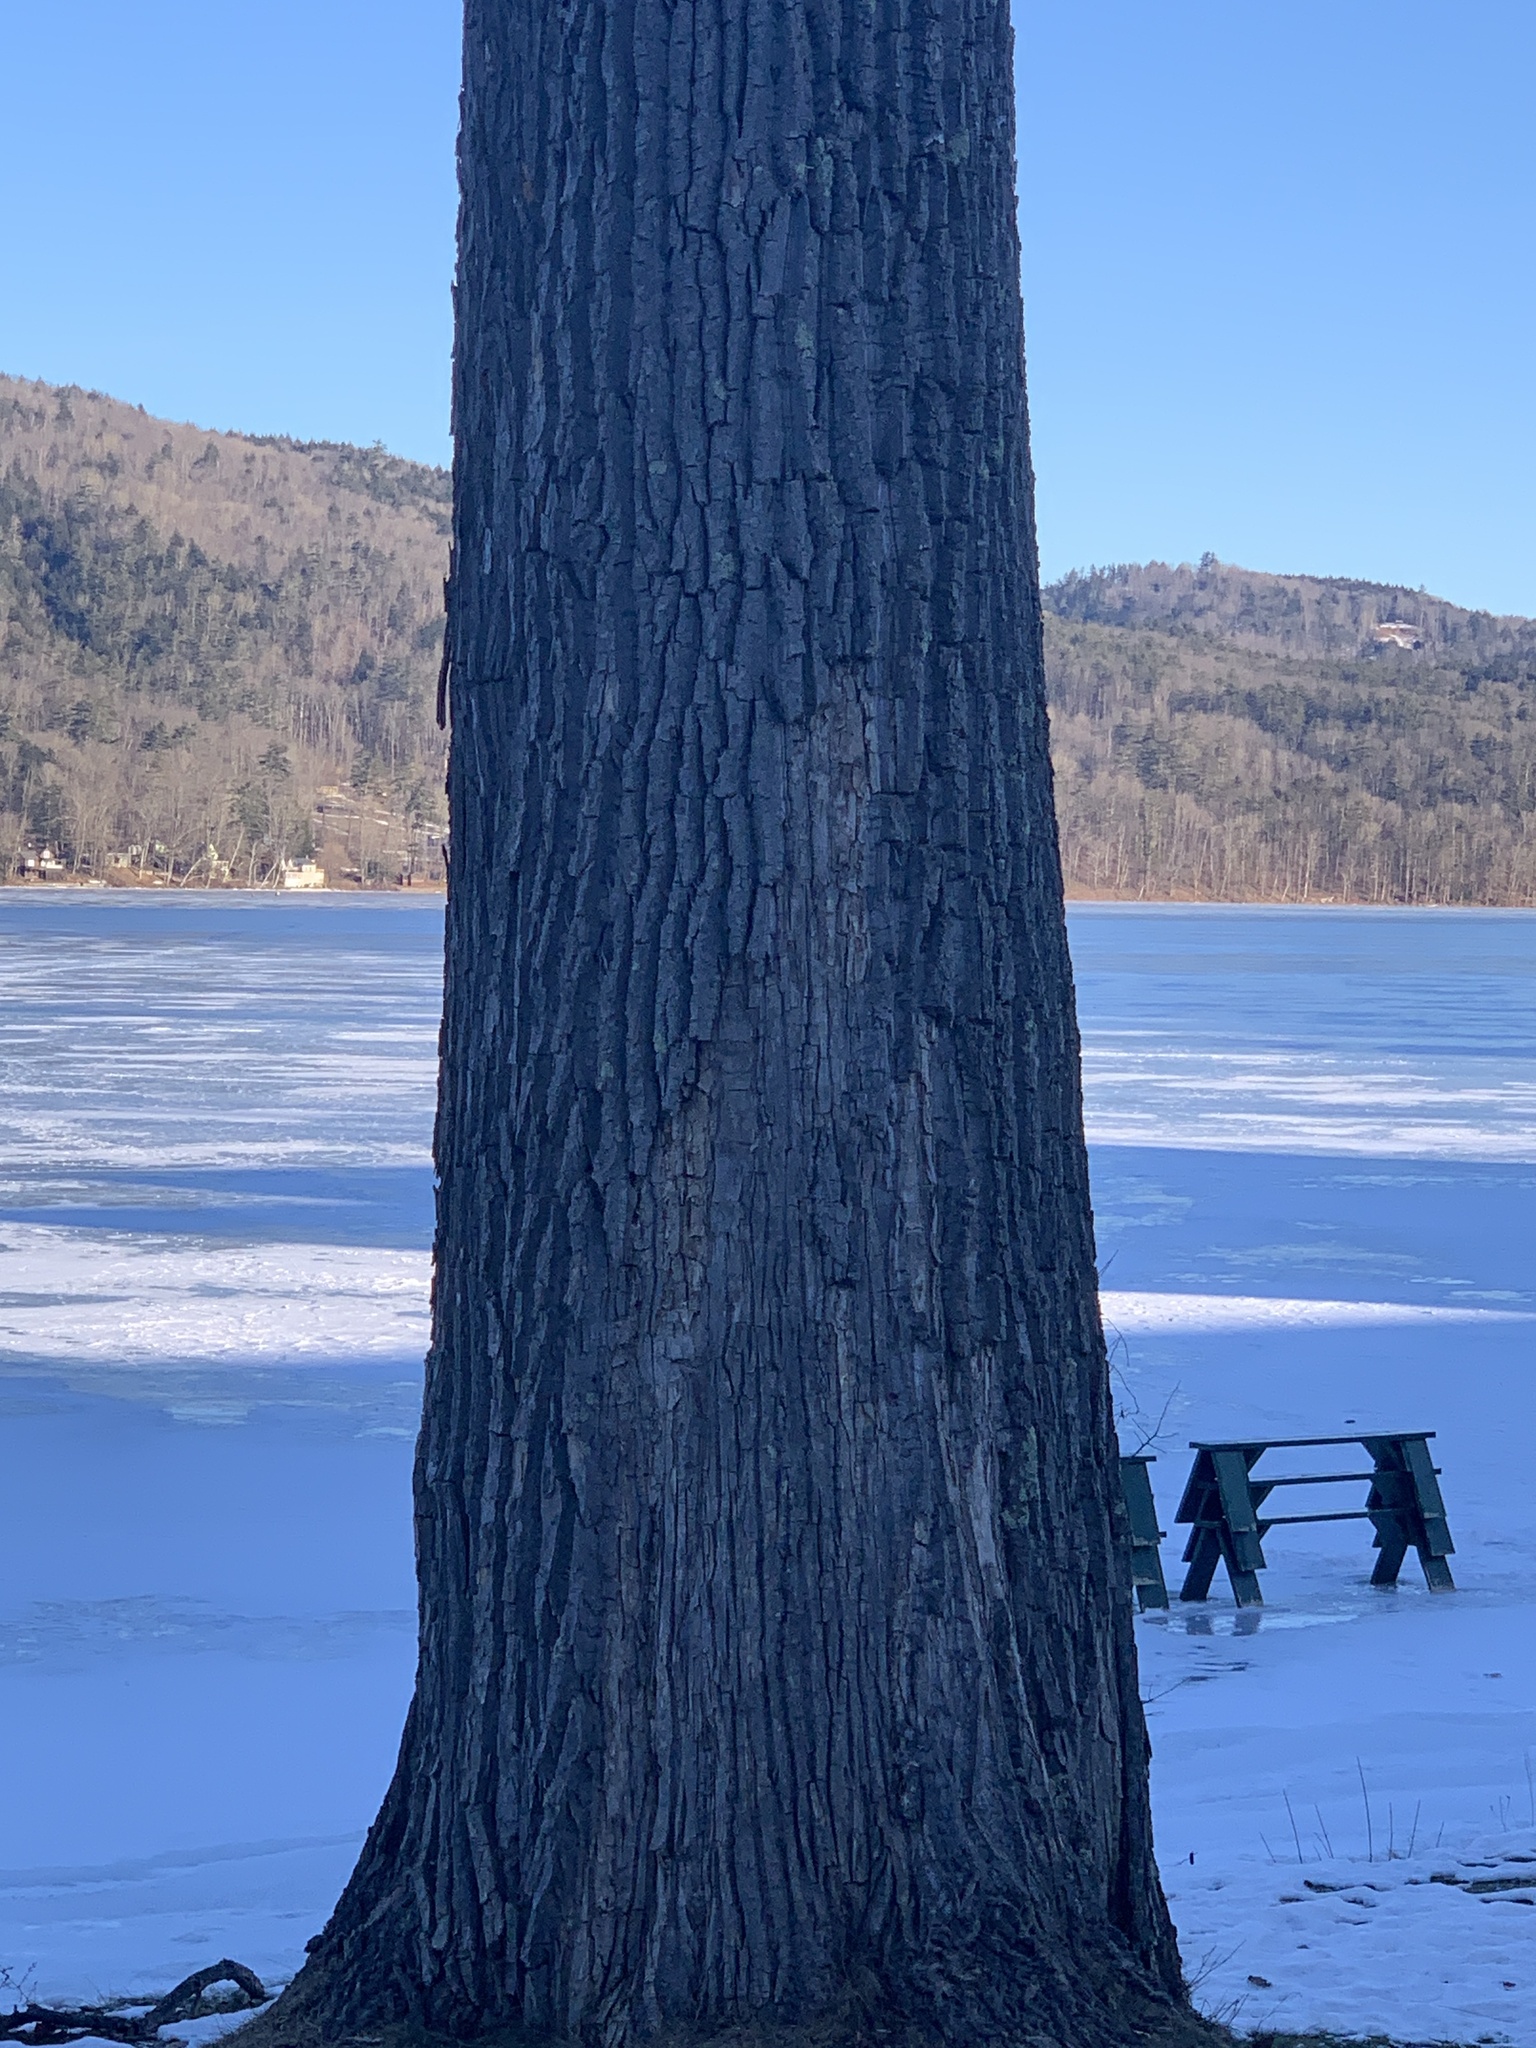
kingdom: Plantae
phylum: Tracheophyta
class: Magnoliopsida
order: Malpighiales
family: Salicaceae
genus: Populus
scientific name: Populus deltoides
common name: Eastern cottonwood
